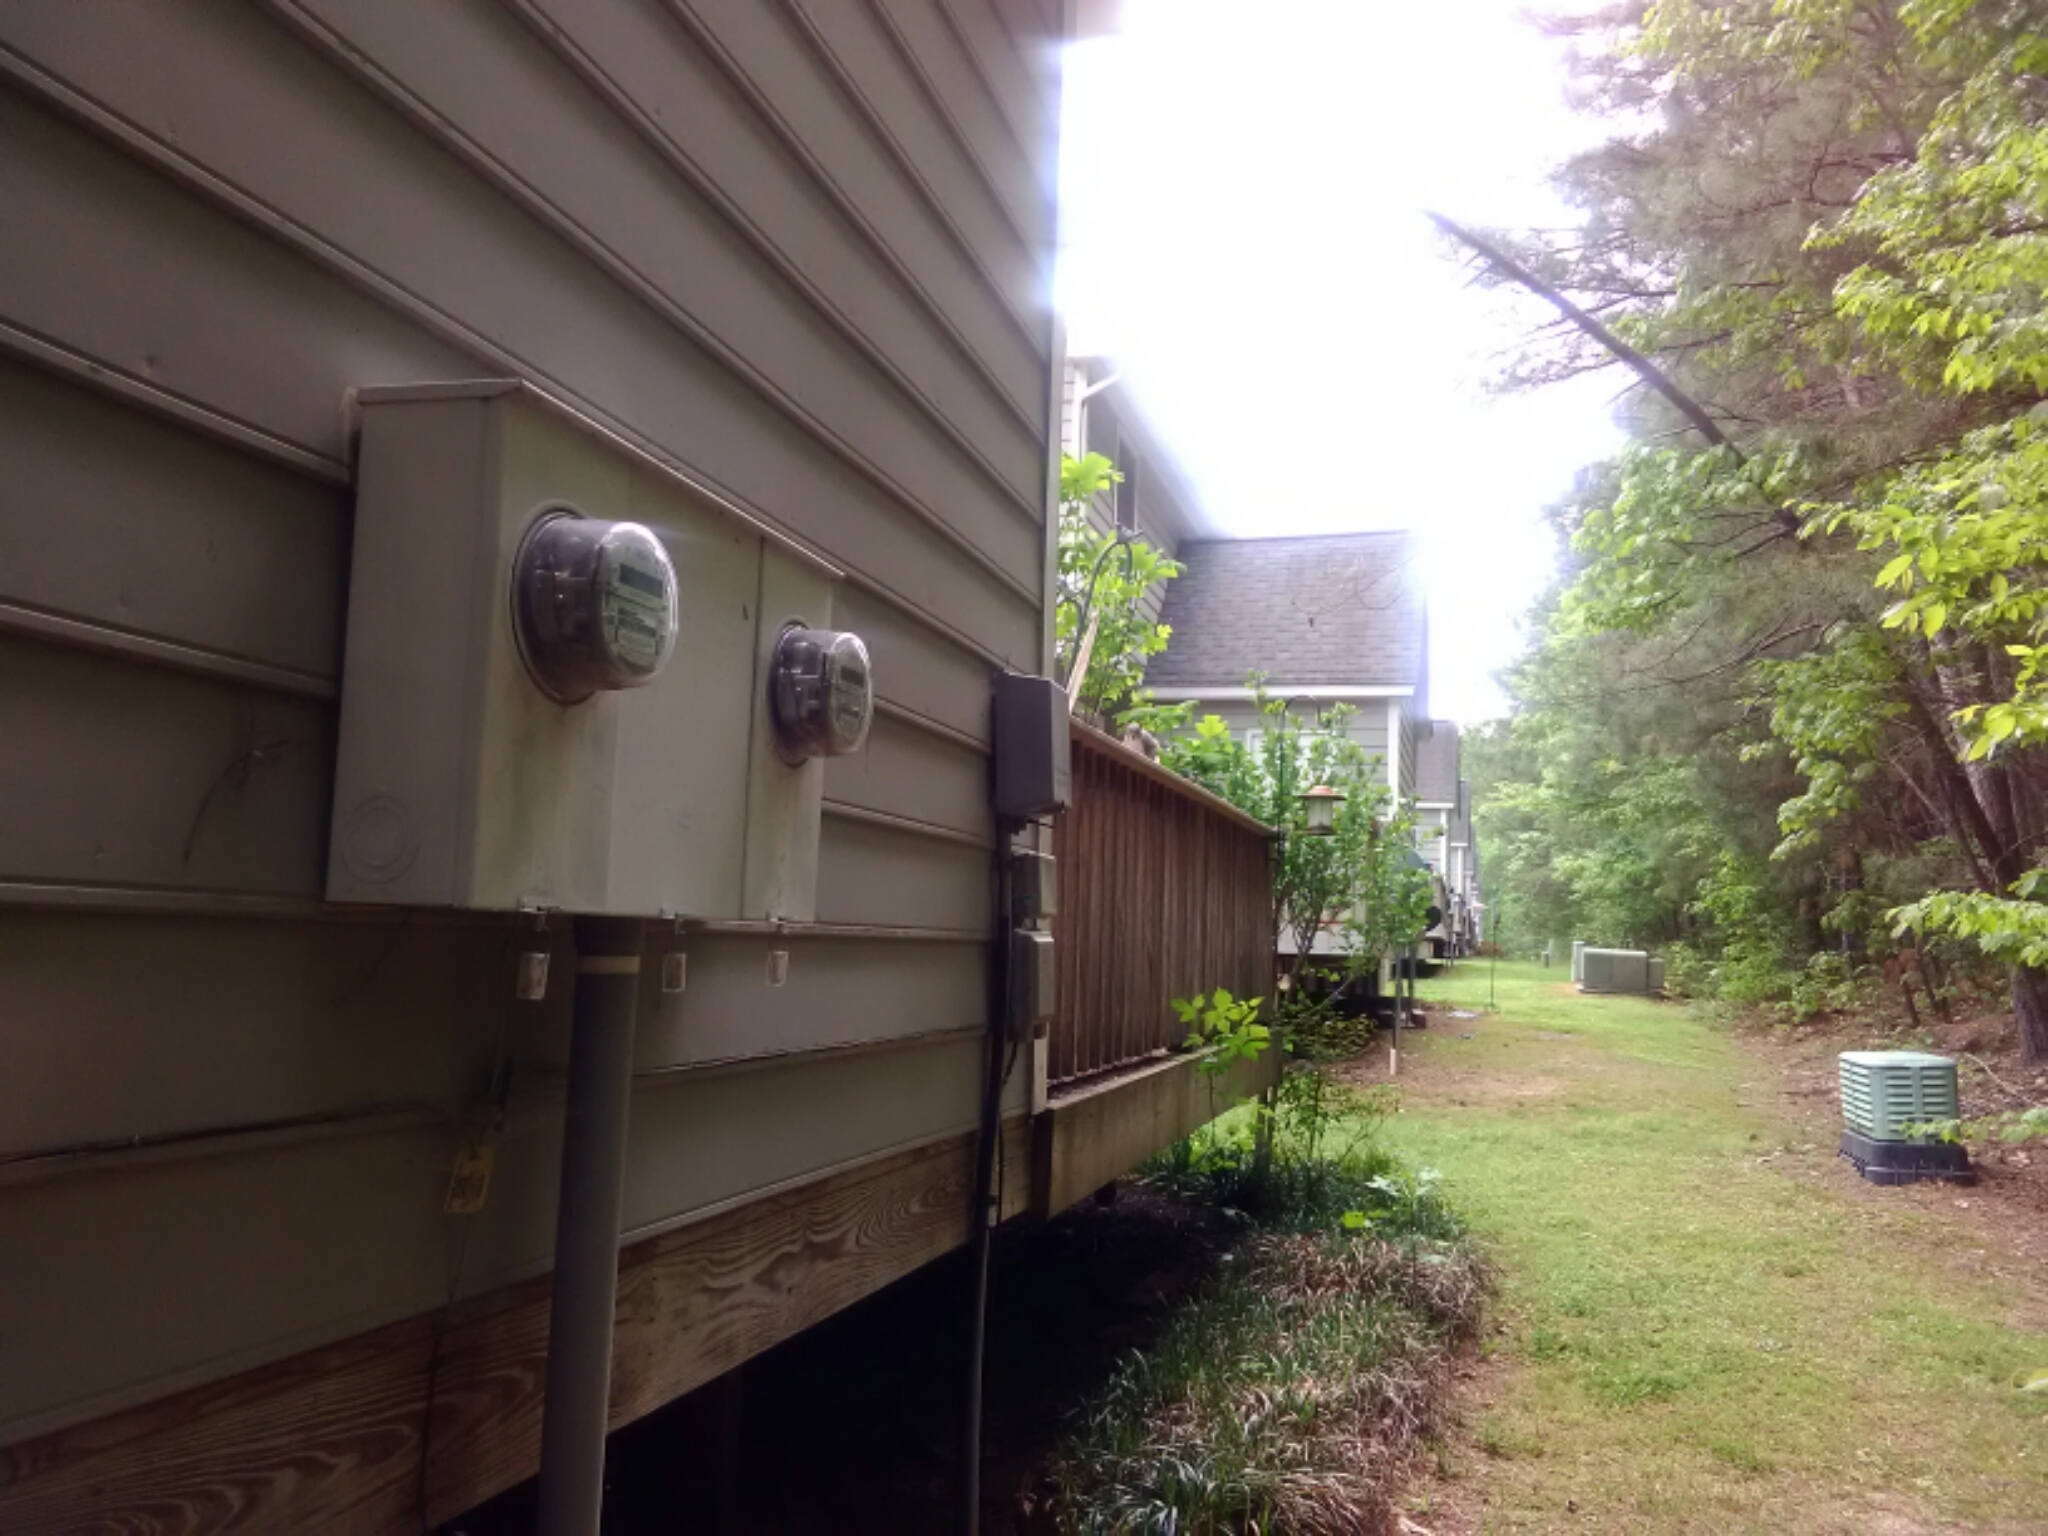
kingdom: Animalia
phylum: Chordata
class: Mammalia
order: Rodentia
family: Sciuridae
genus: Sciurus
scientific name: Sciurus carolinensis
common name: Eastern gray squirrel
